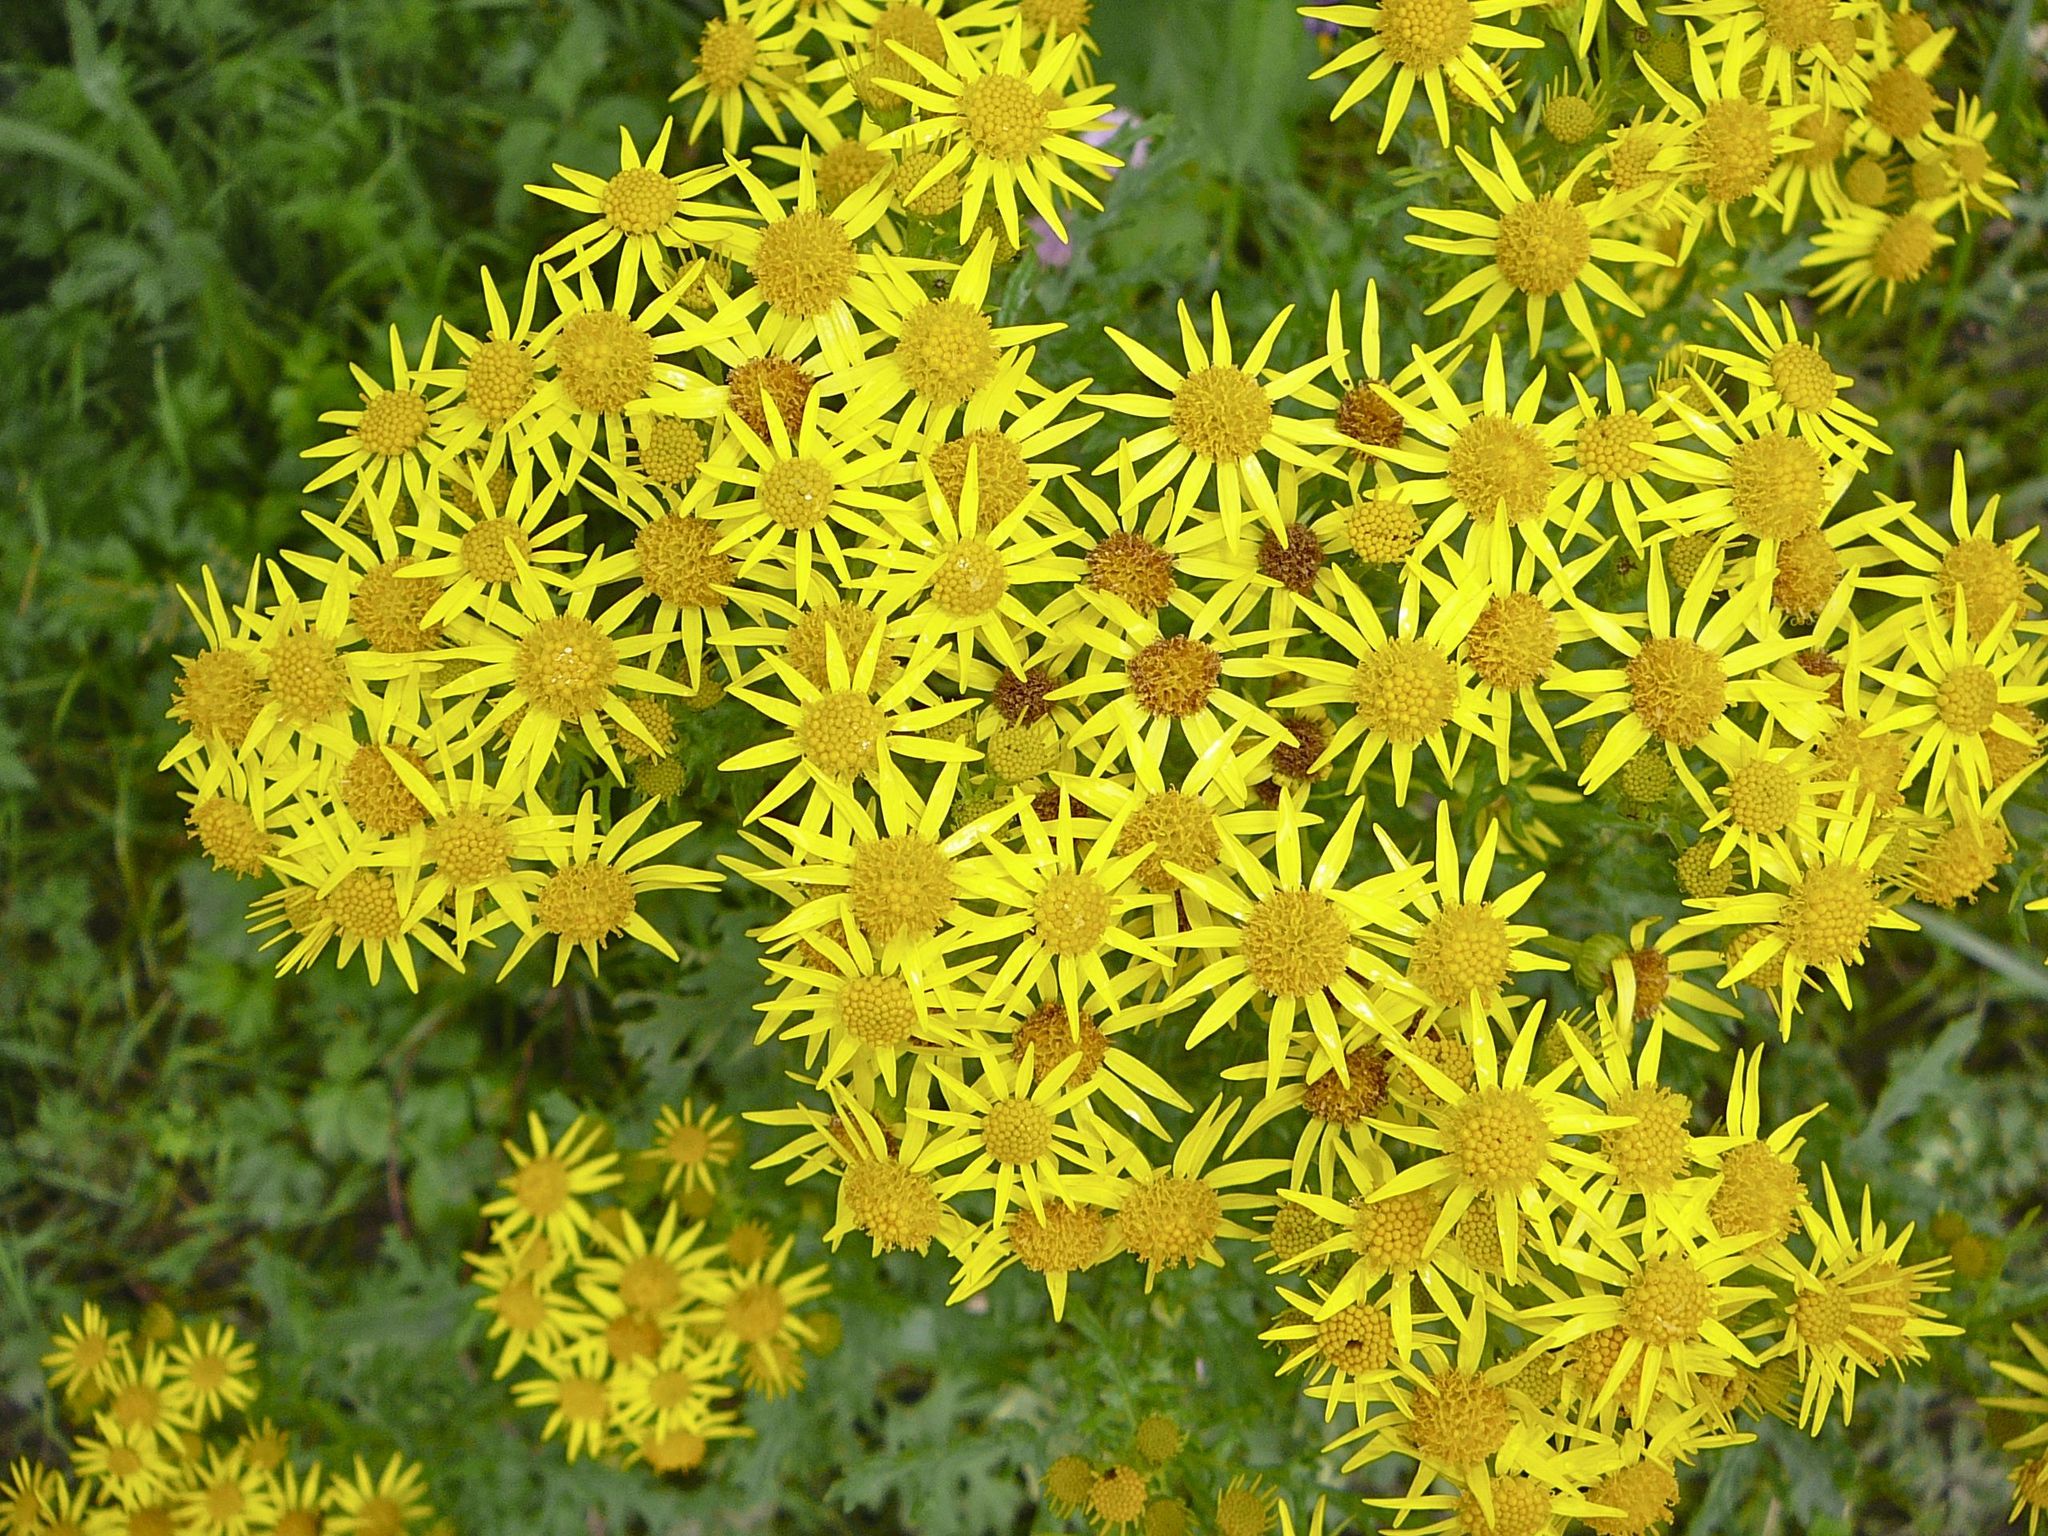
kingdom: Plantae
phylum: Tracheophyta
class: Magnoliopsida
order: Asterales
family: Asteraceae
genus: Jacobaea
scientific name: Jacobaea vulgaris
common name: Stinking willie
